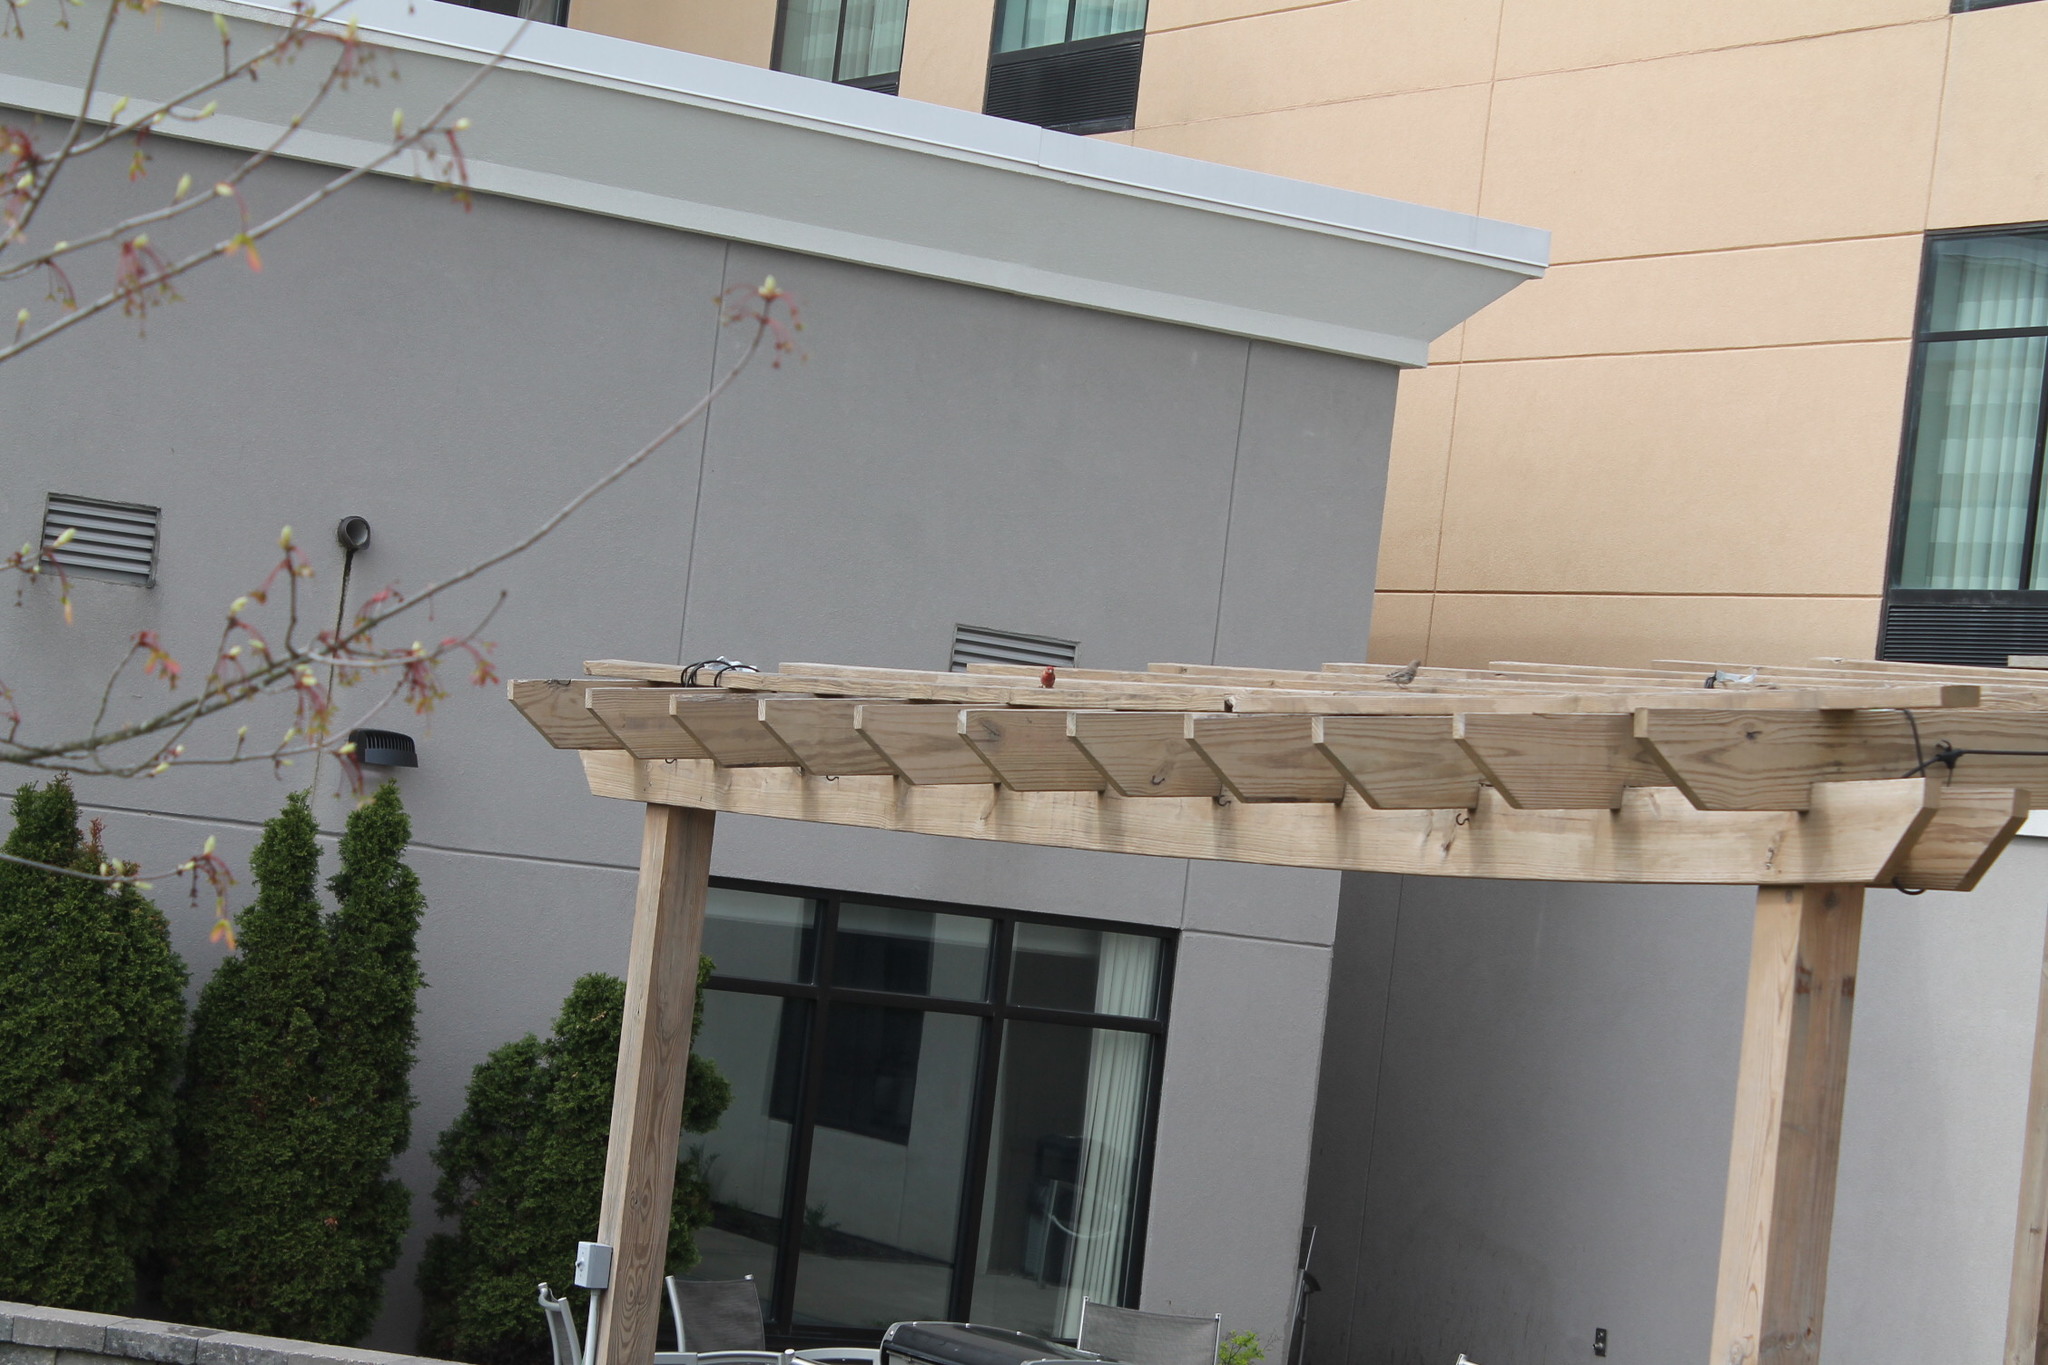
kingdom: Animalia
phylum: Chordata
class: Aves
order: Passeriformes
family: Fringillidae
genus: Haemorhous
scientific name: Haemorhous mexicanus
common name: House finch
